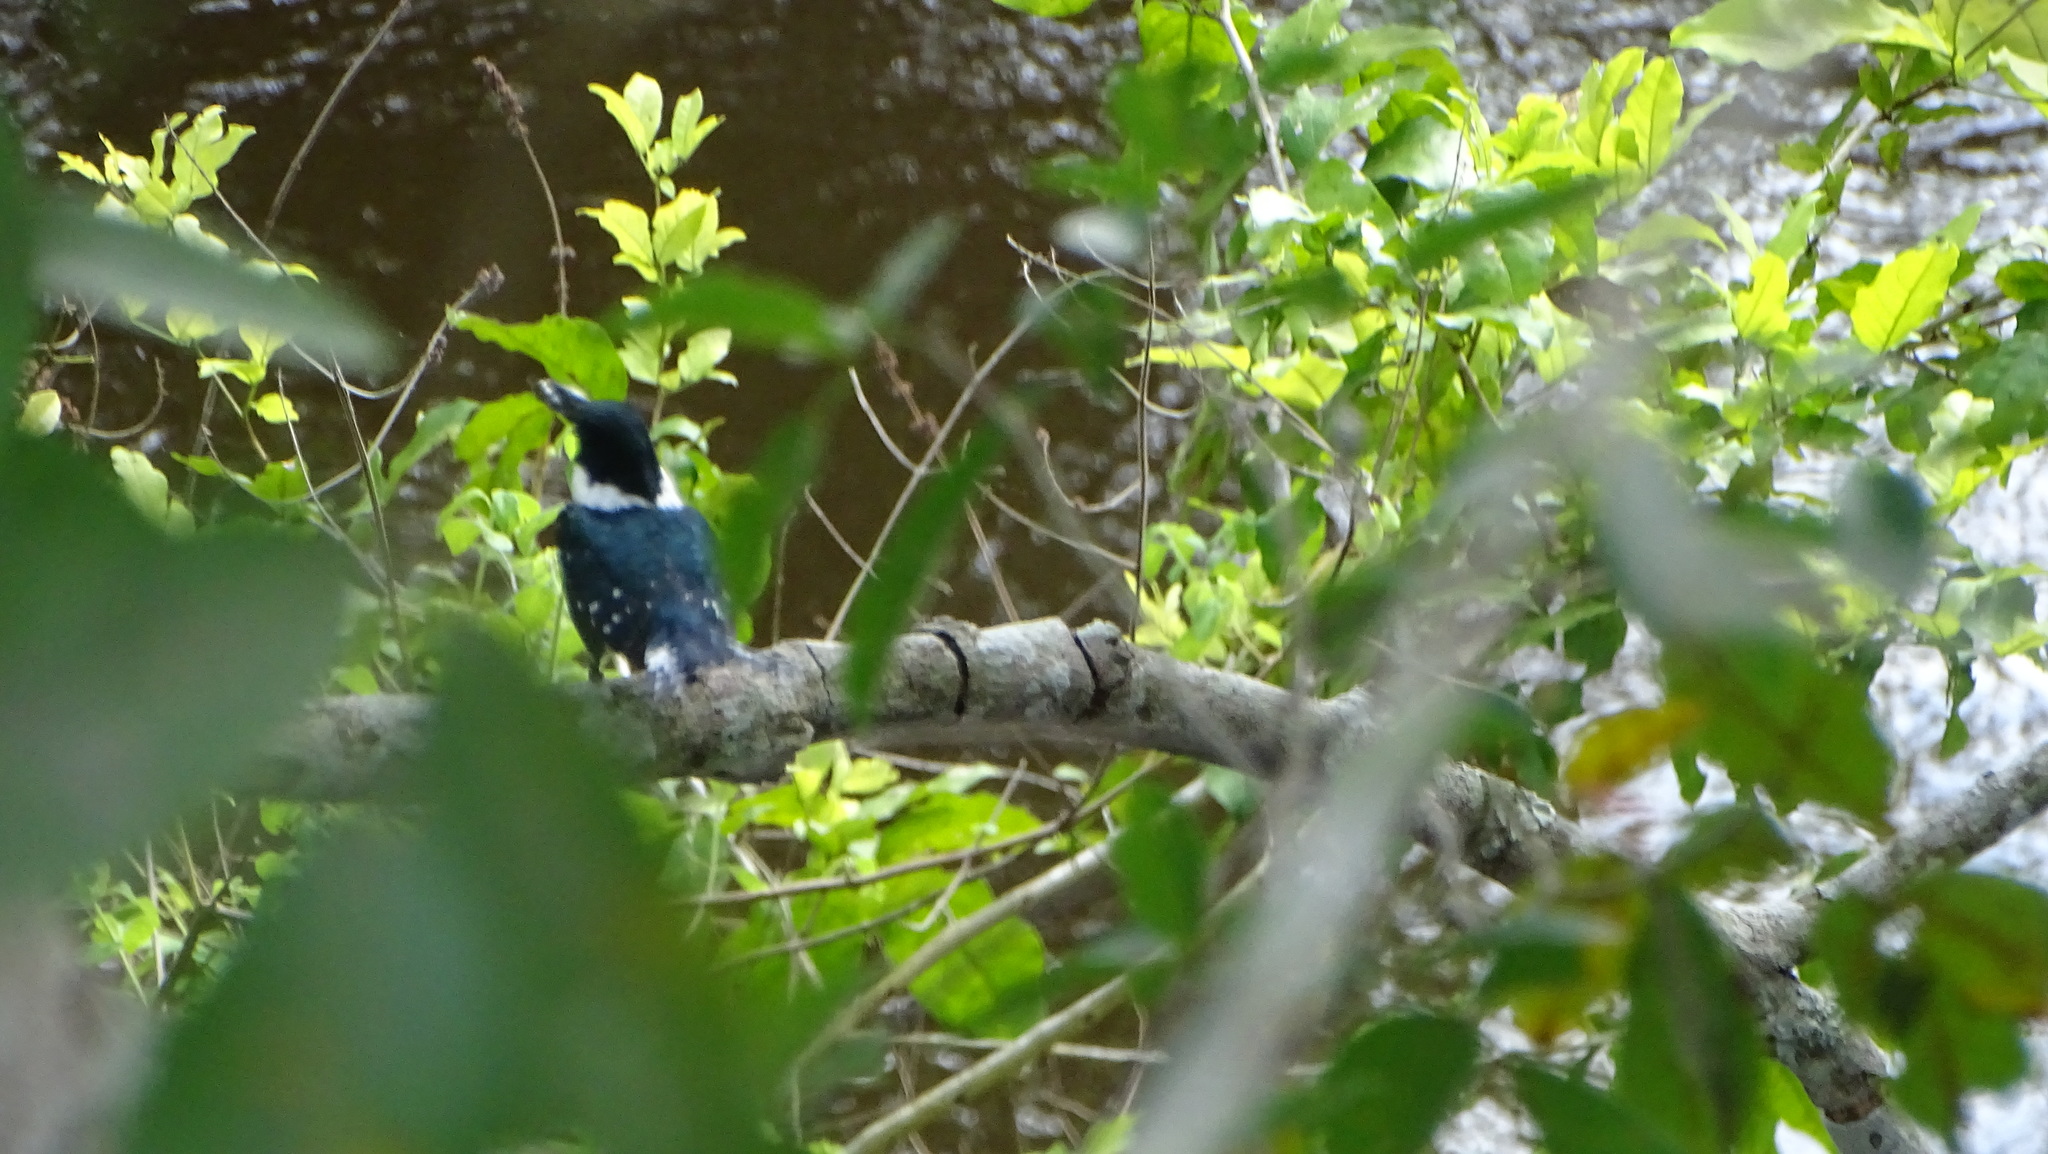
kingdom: Animalia
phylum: Chordata
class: Aves
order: Coraciiformes
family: Alcedinidae
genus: Chloroceryle
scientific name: Chloroceryle americana
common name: Green kingfisher
